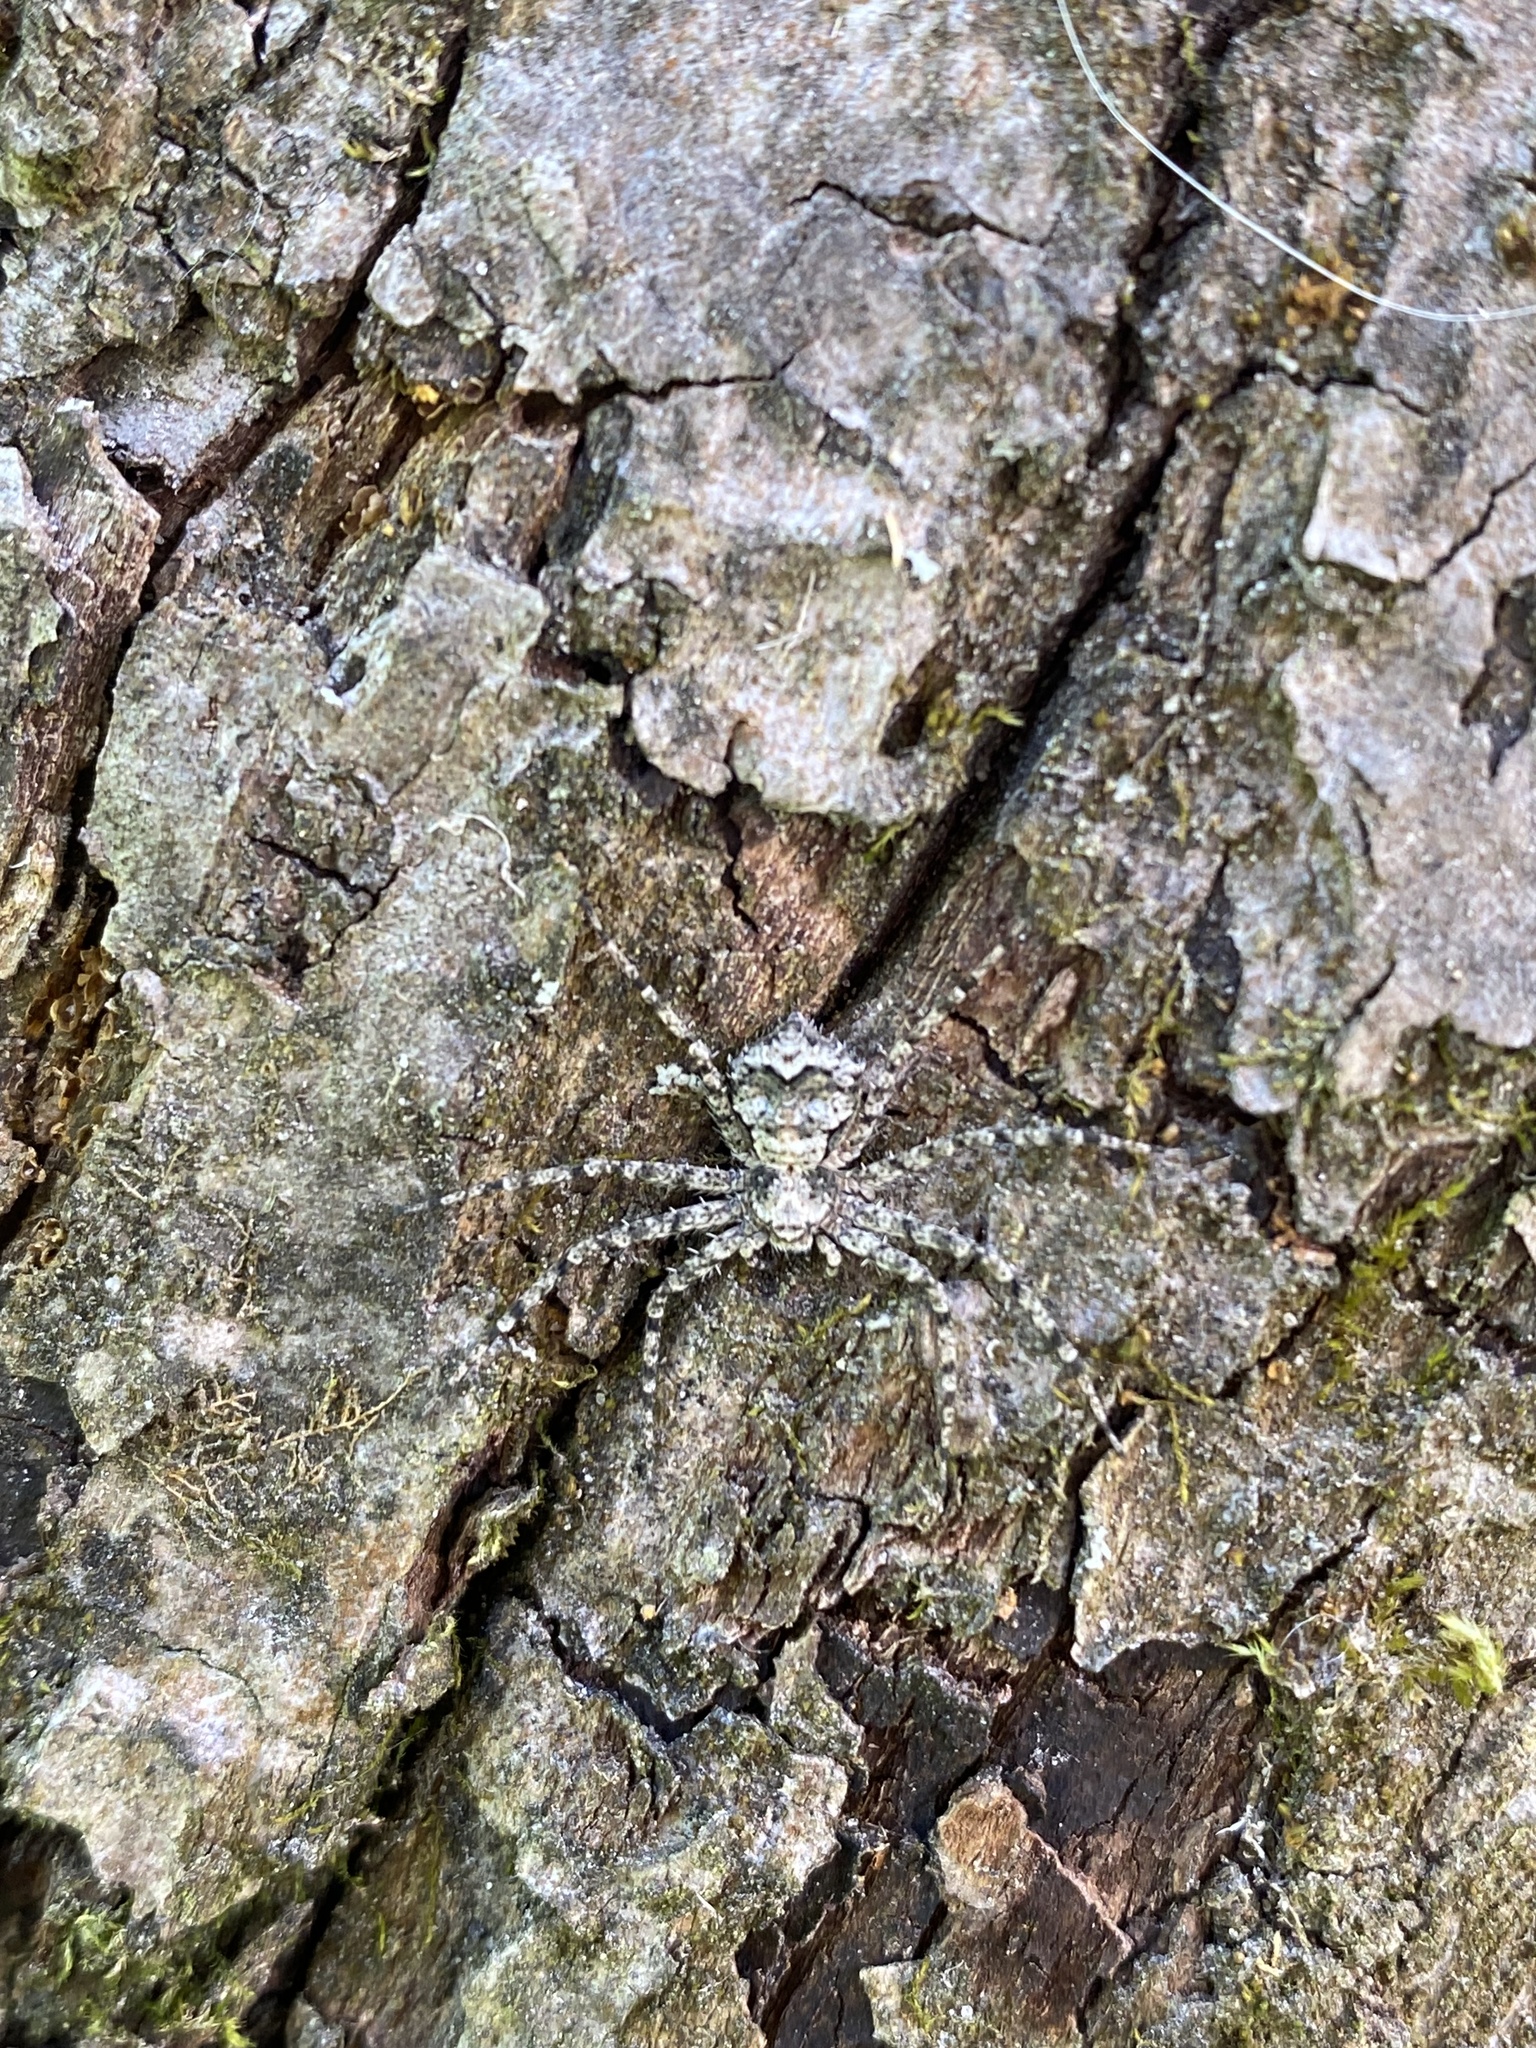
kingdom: Animalia
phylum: Arthropoda
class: Arachnida
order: Araneae
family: Philodromidae
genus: Artanes
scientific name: Artanes
